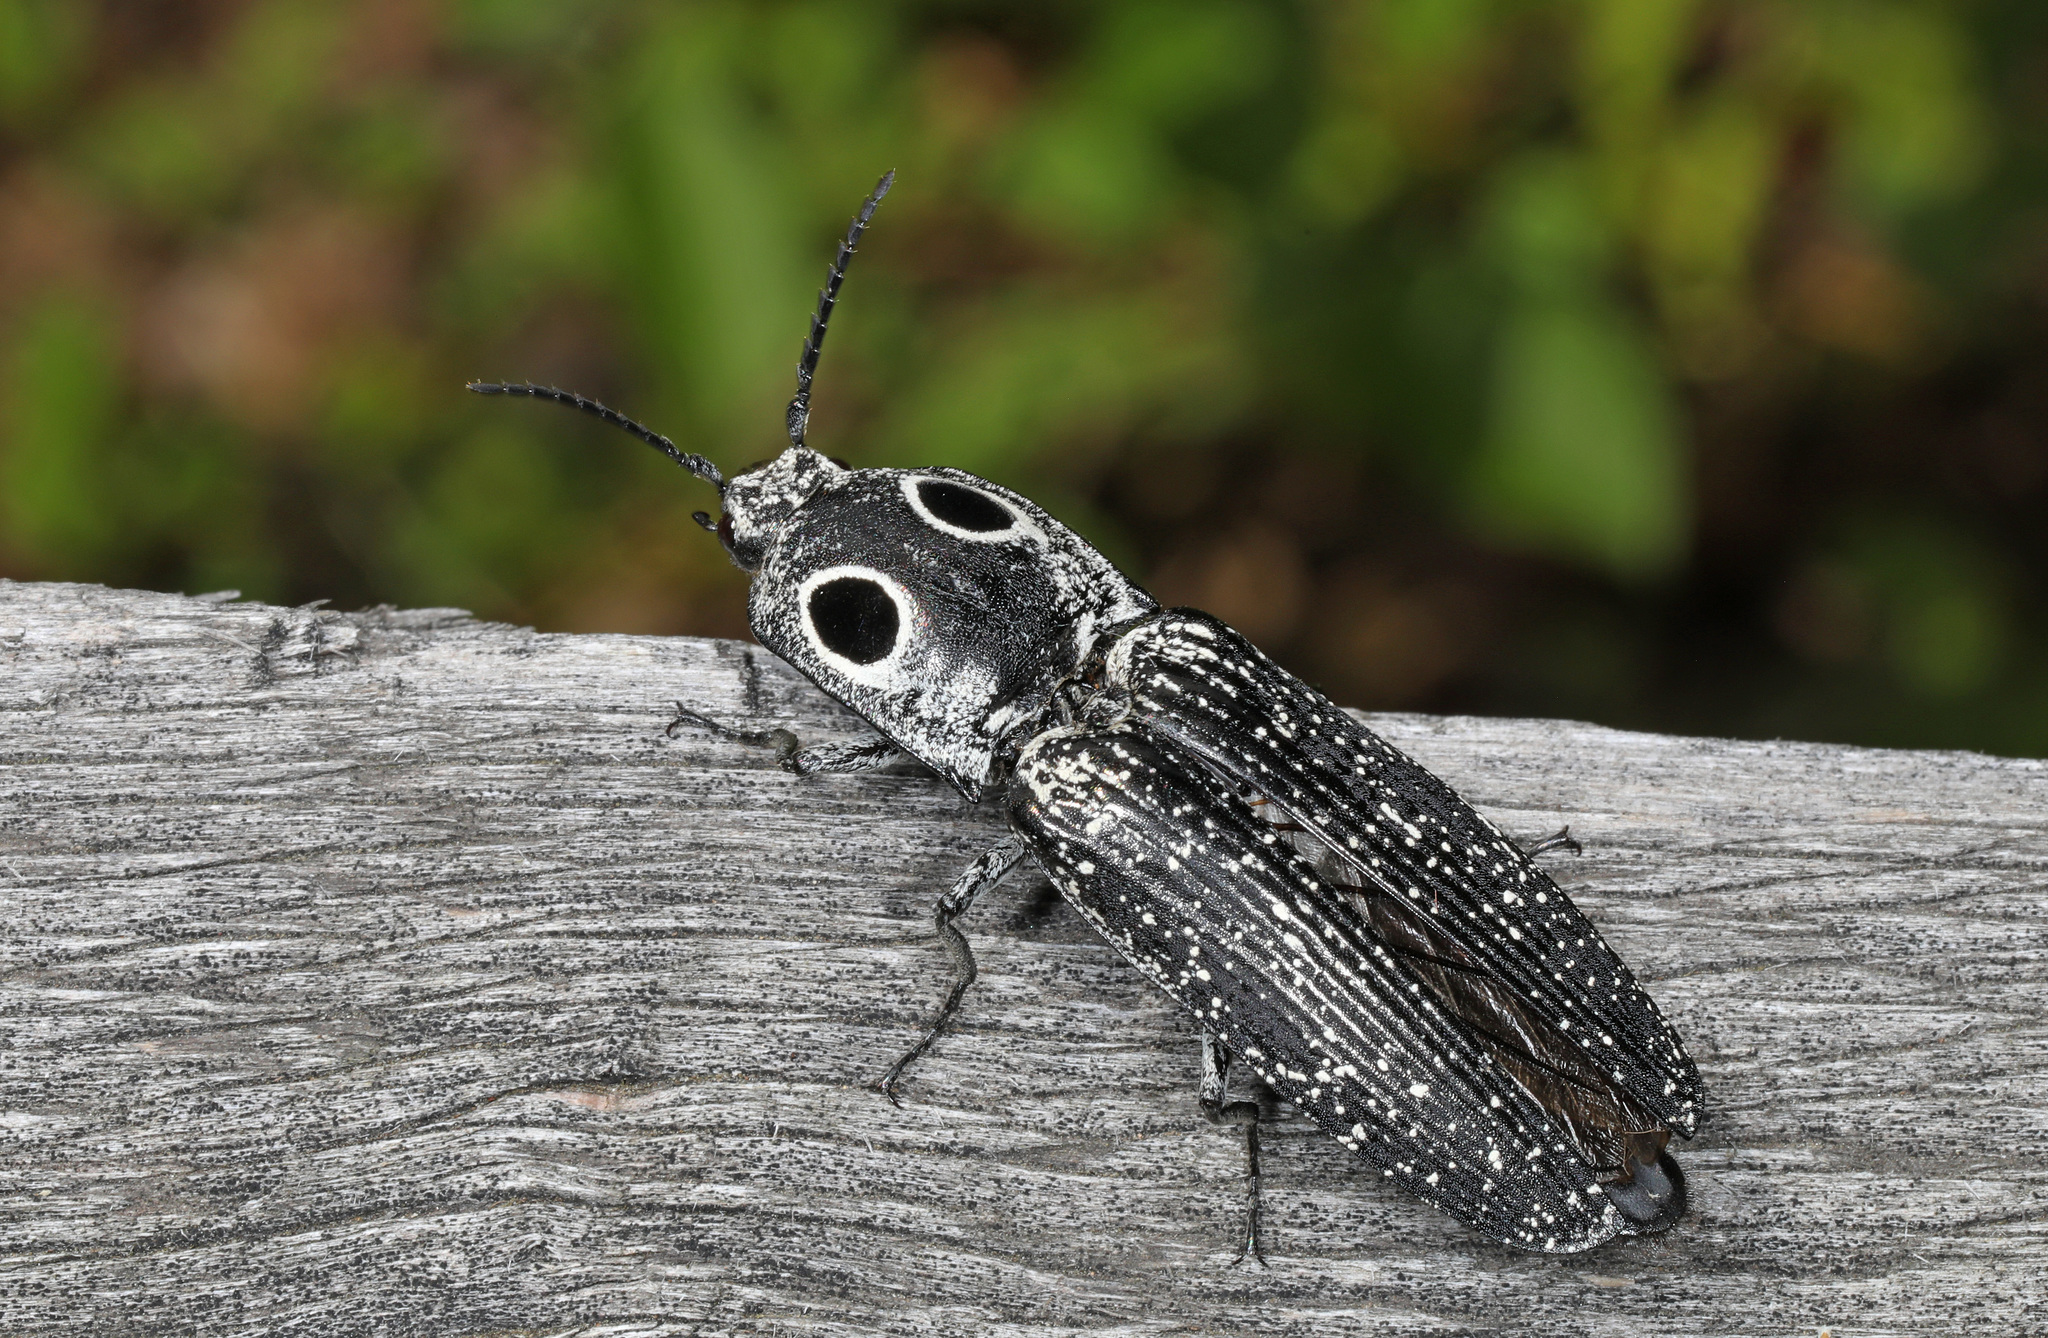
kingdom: Animalia
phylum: Arthropoda
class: Insecta
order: Coleoptera
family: Elateridae
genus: Alaus
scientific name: Alaus oculatus
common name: Eastern eyed click beetle
